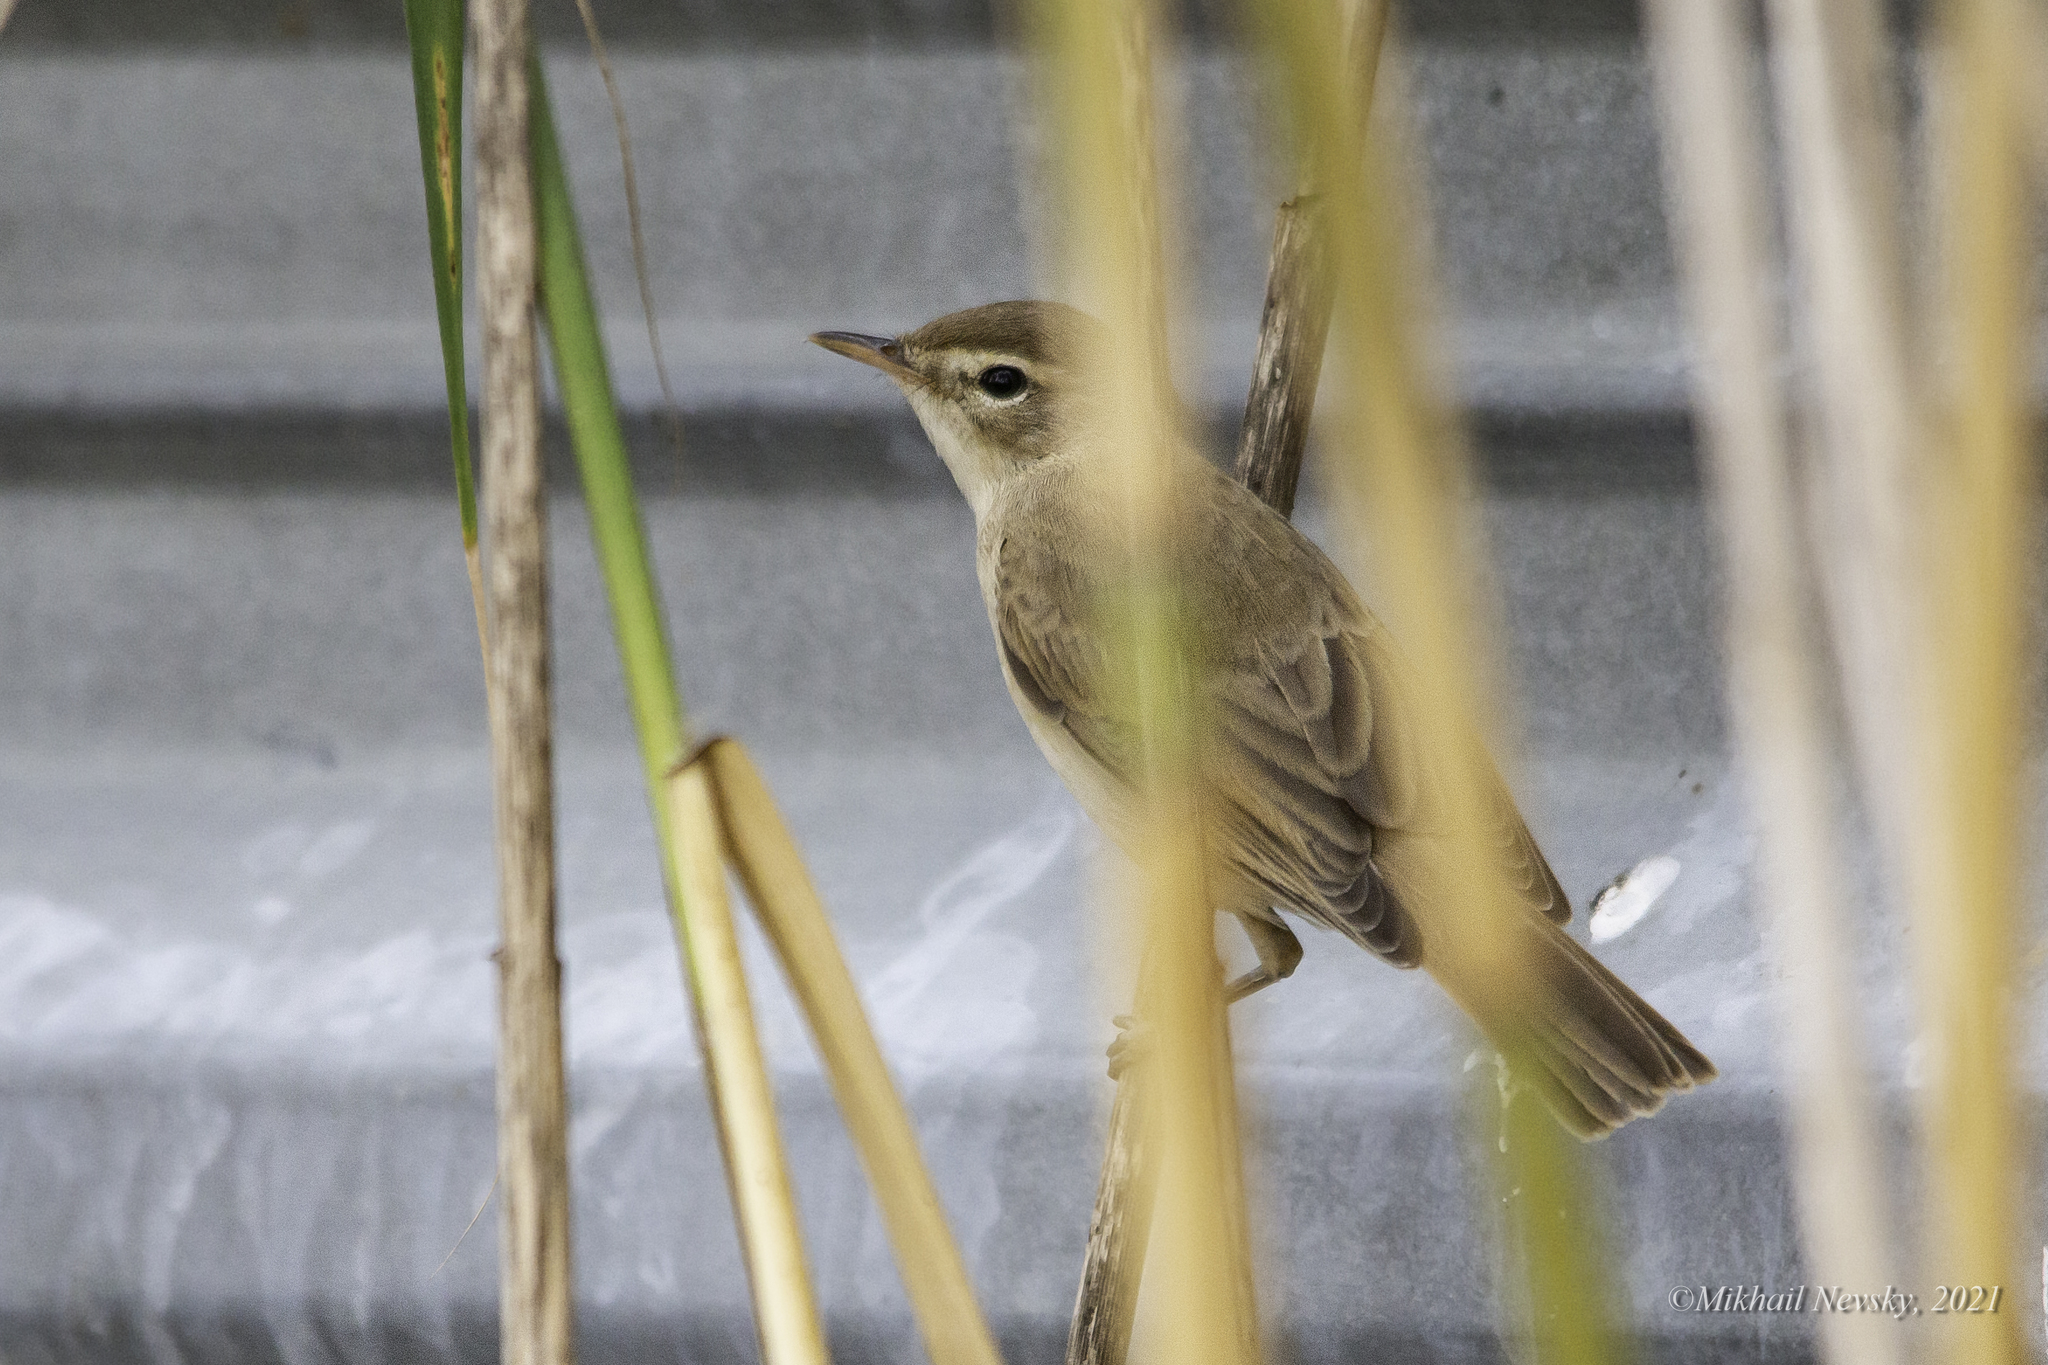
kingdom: Animalia
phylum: Chordata
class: Aves
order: Passeriformes
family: Acrocephalidae
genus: Iduna
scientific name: Iduna caligata
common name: Booted warbler
